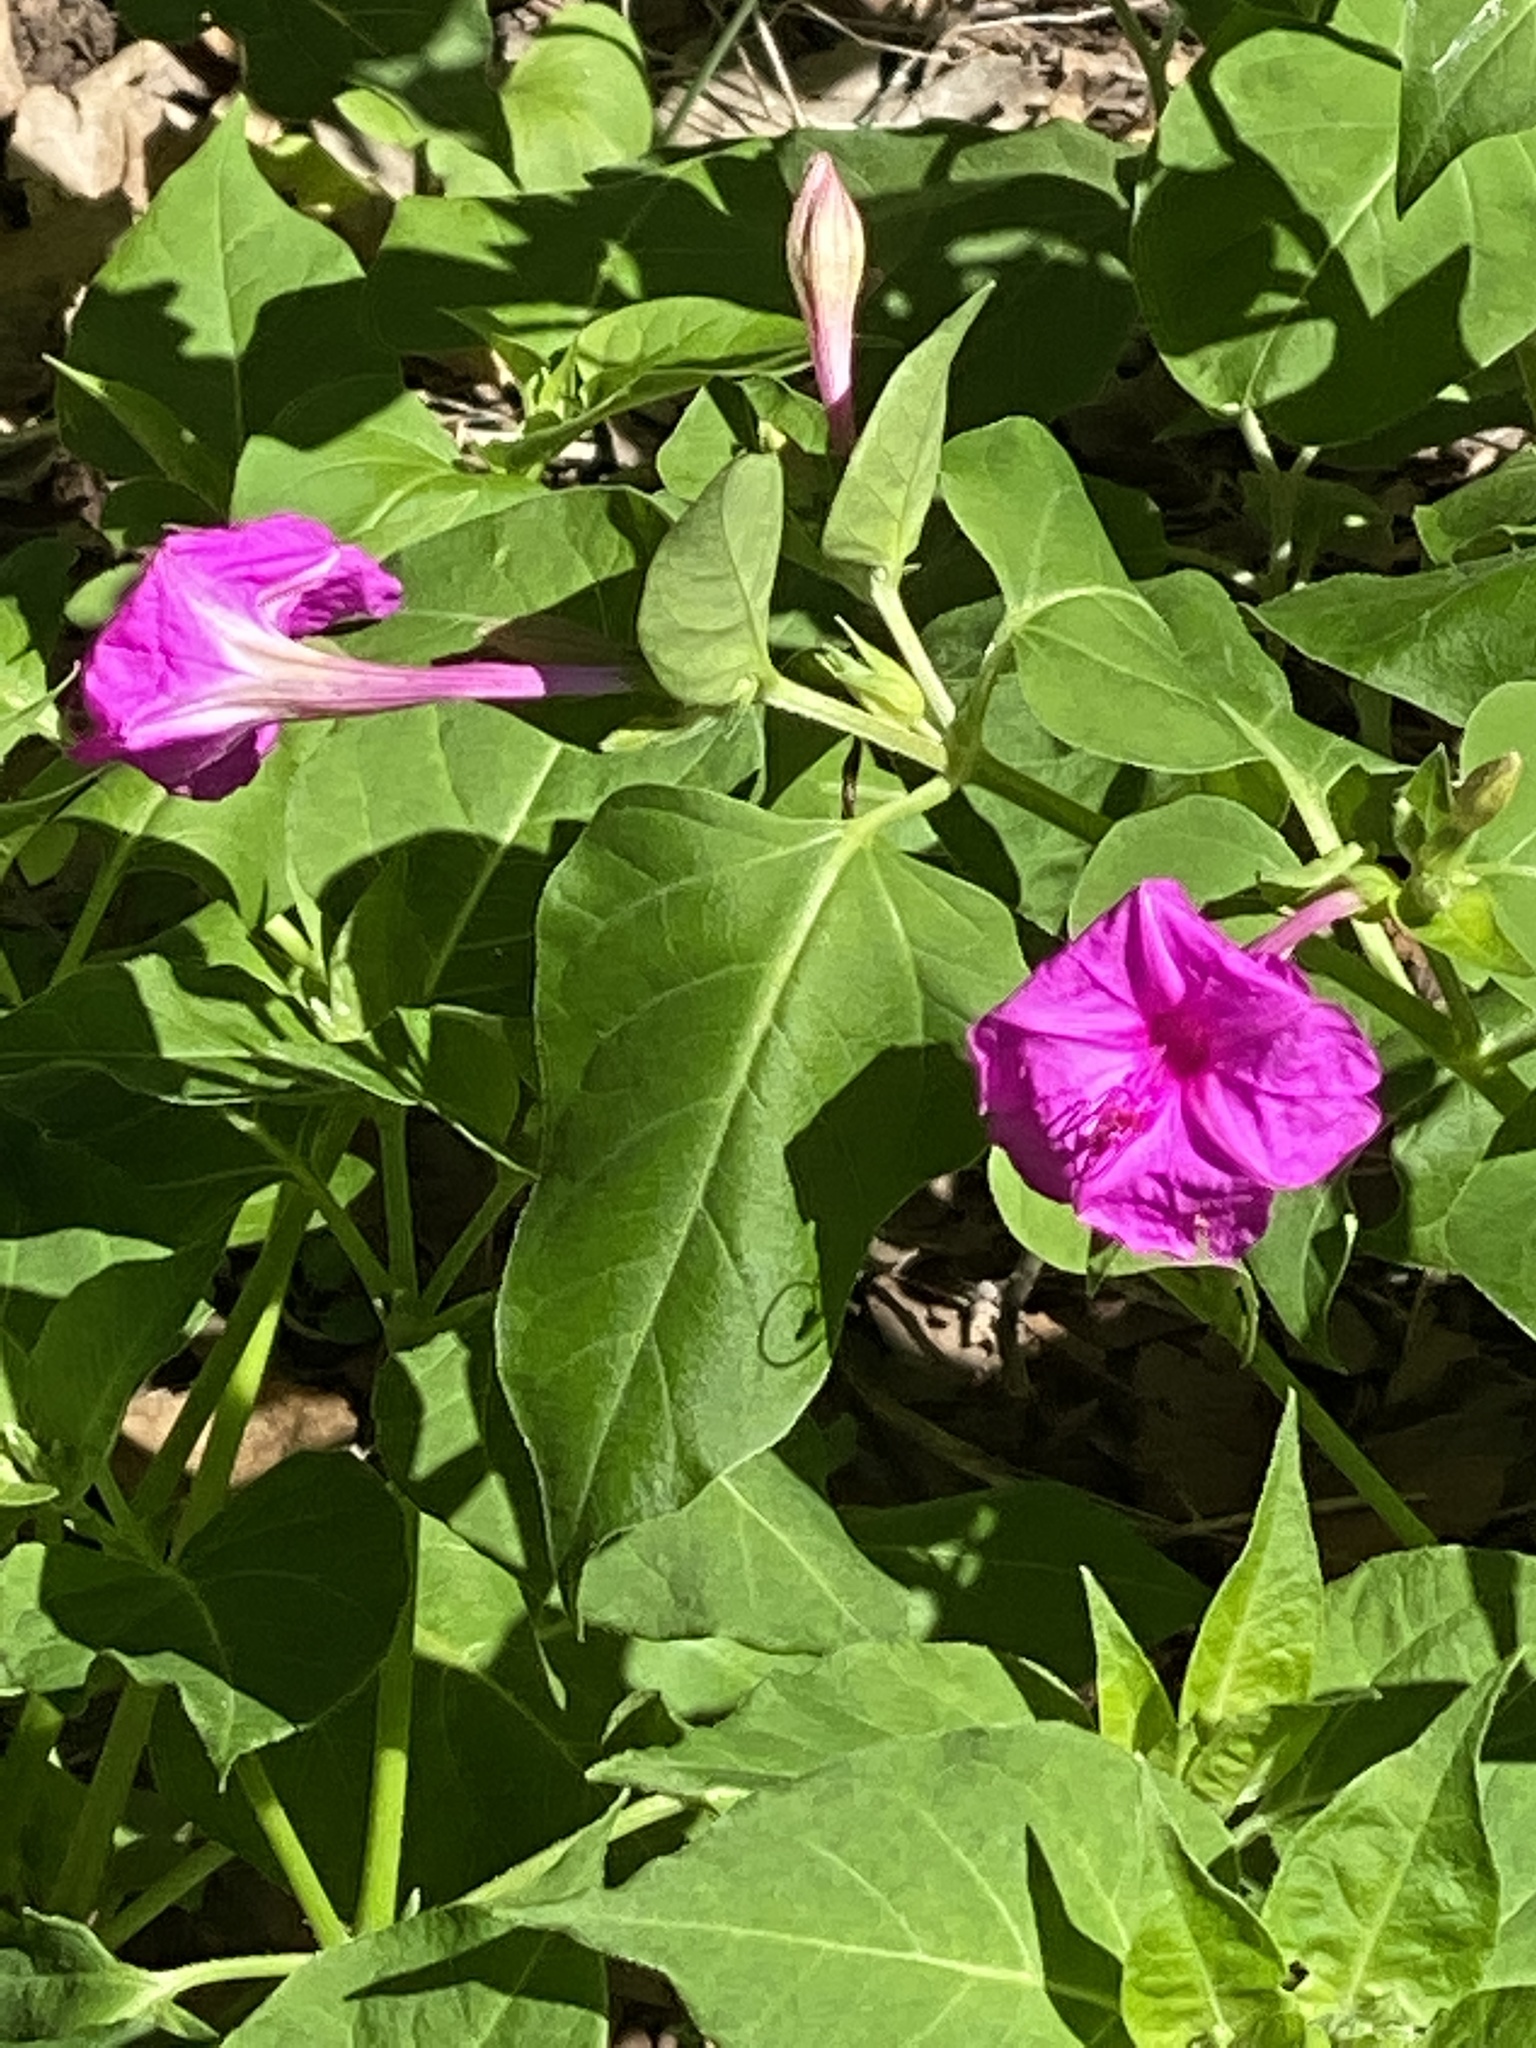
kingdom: Plantae
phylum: Tracheophyta
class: Magnoliopsida
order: Caryophyllales
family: Nyctaginaceae
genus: Mirabilis
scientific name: Mirabilis jalapa
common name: Marvel-of-peru
